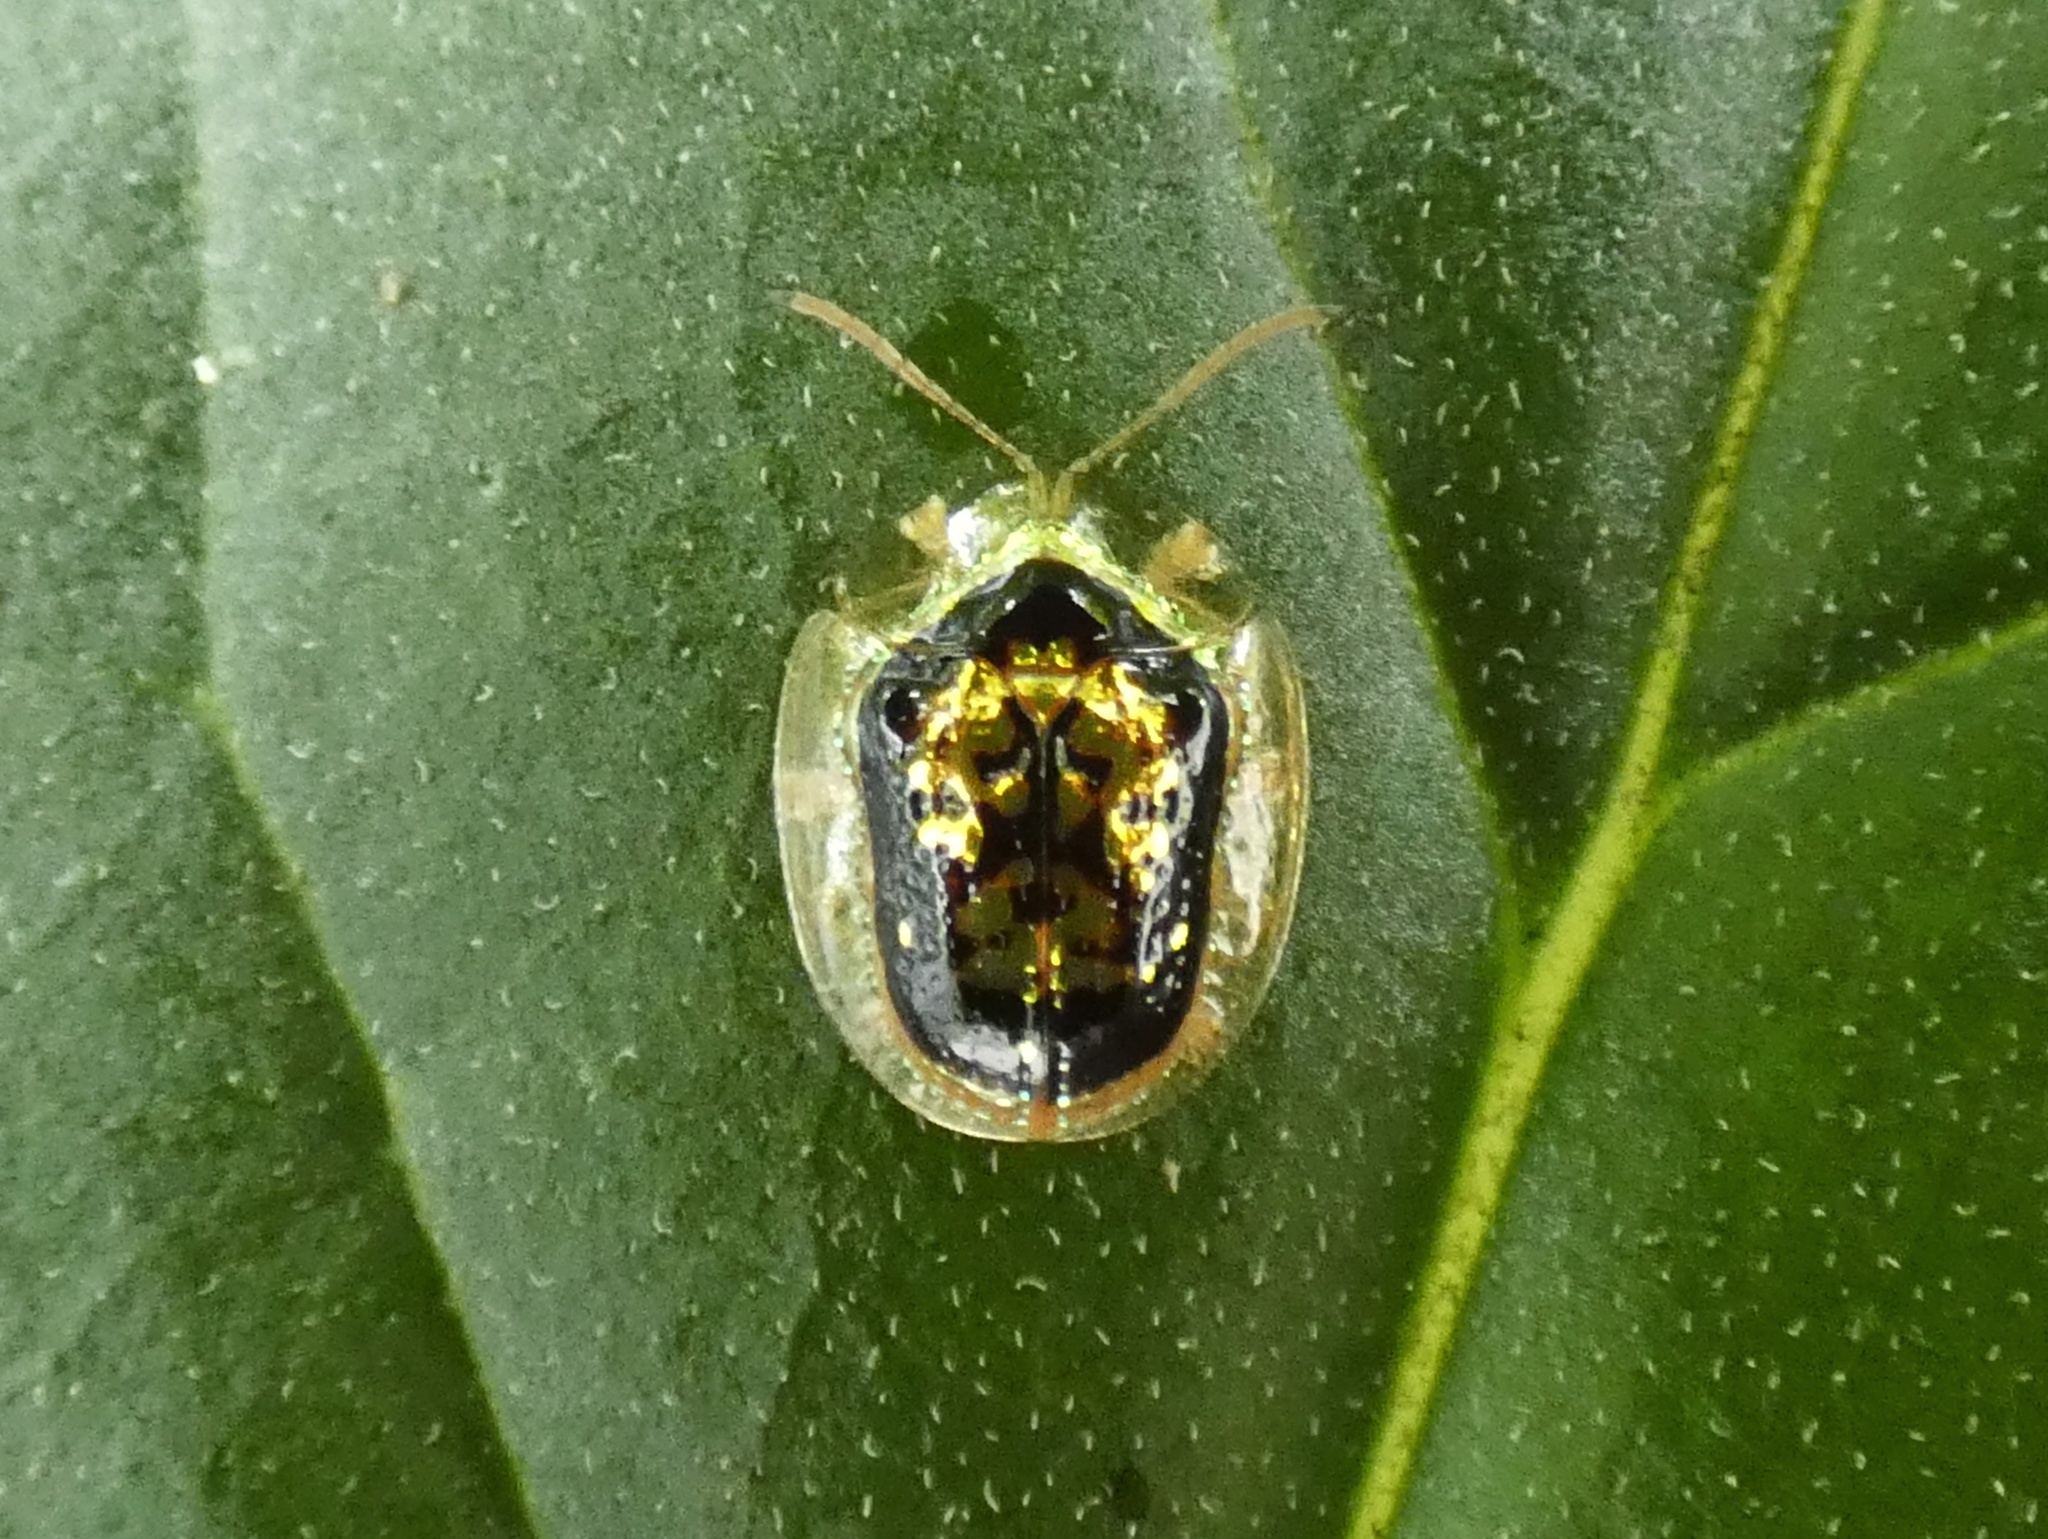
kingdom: Animalia
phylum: Arthropoda
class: Insecta
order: Coleoptera
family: Chrysomelidae
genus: Microctenochira
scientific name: Microctenochira nigrocincta
